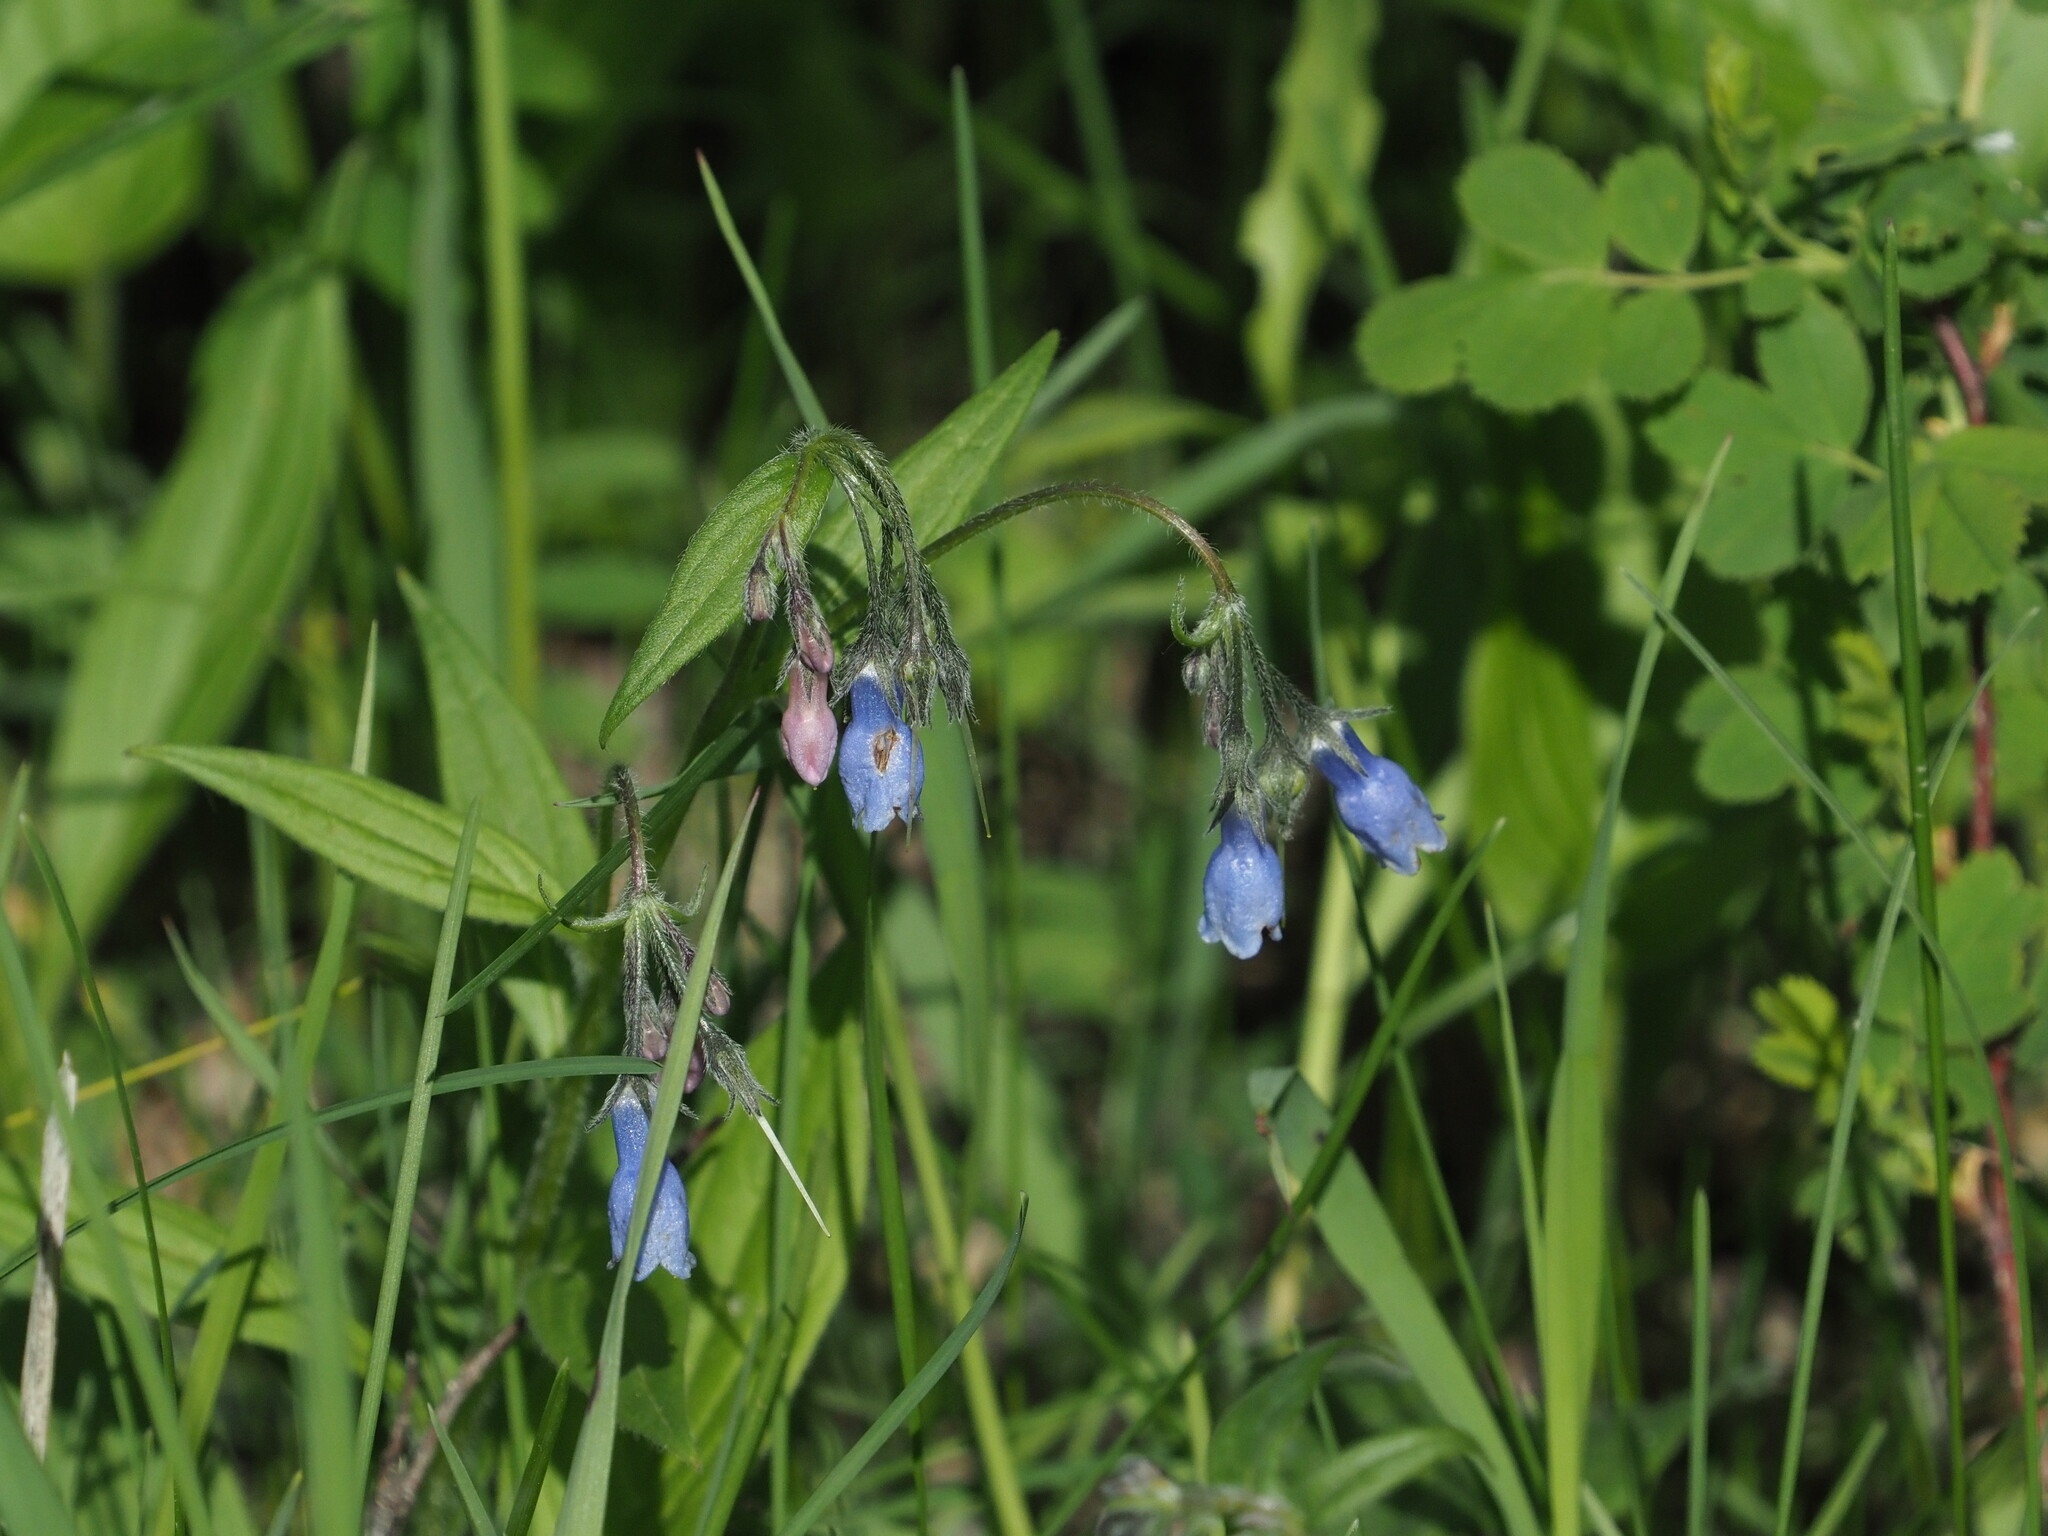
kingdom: Plantae
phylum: Tracheophyta
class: Magnoliopsida
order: Boraginales
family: Boraginaceae
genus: Mertensia
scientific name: Mertensia paniculata
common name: Panicled bluebells
